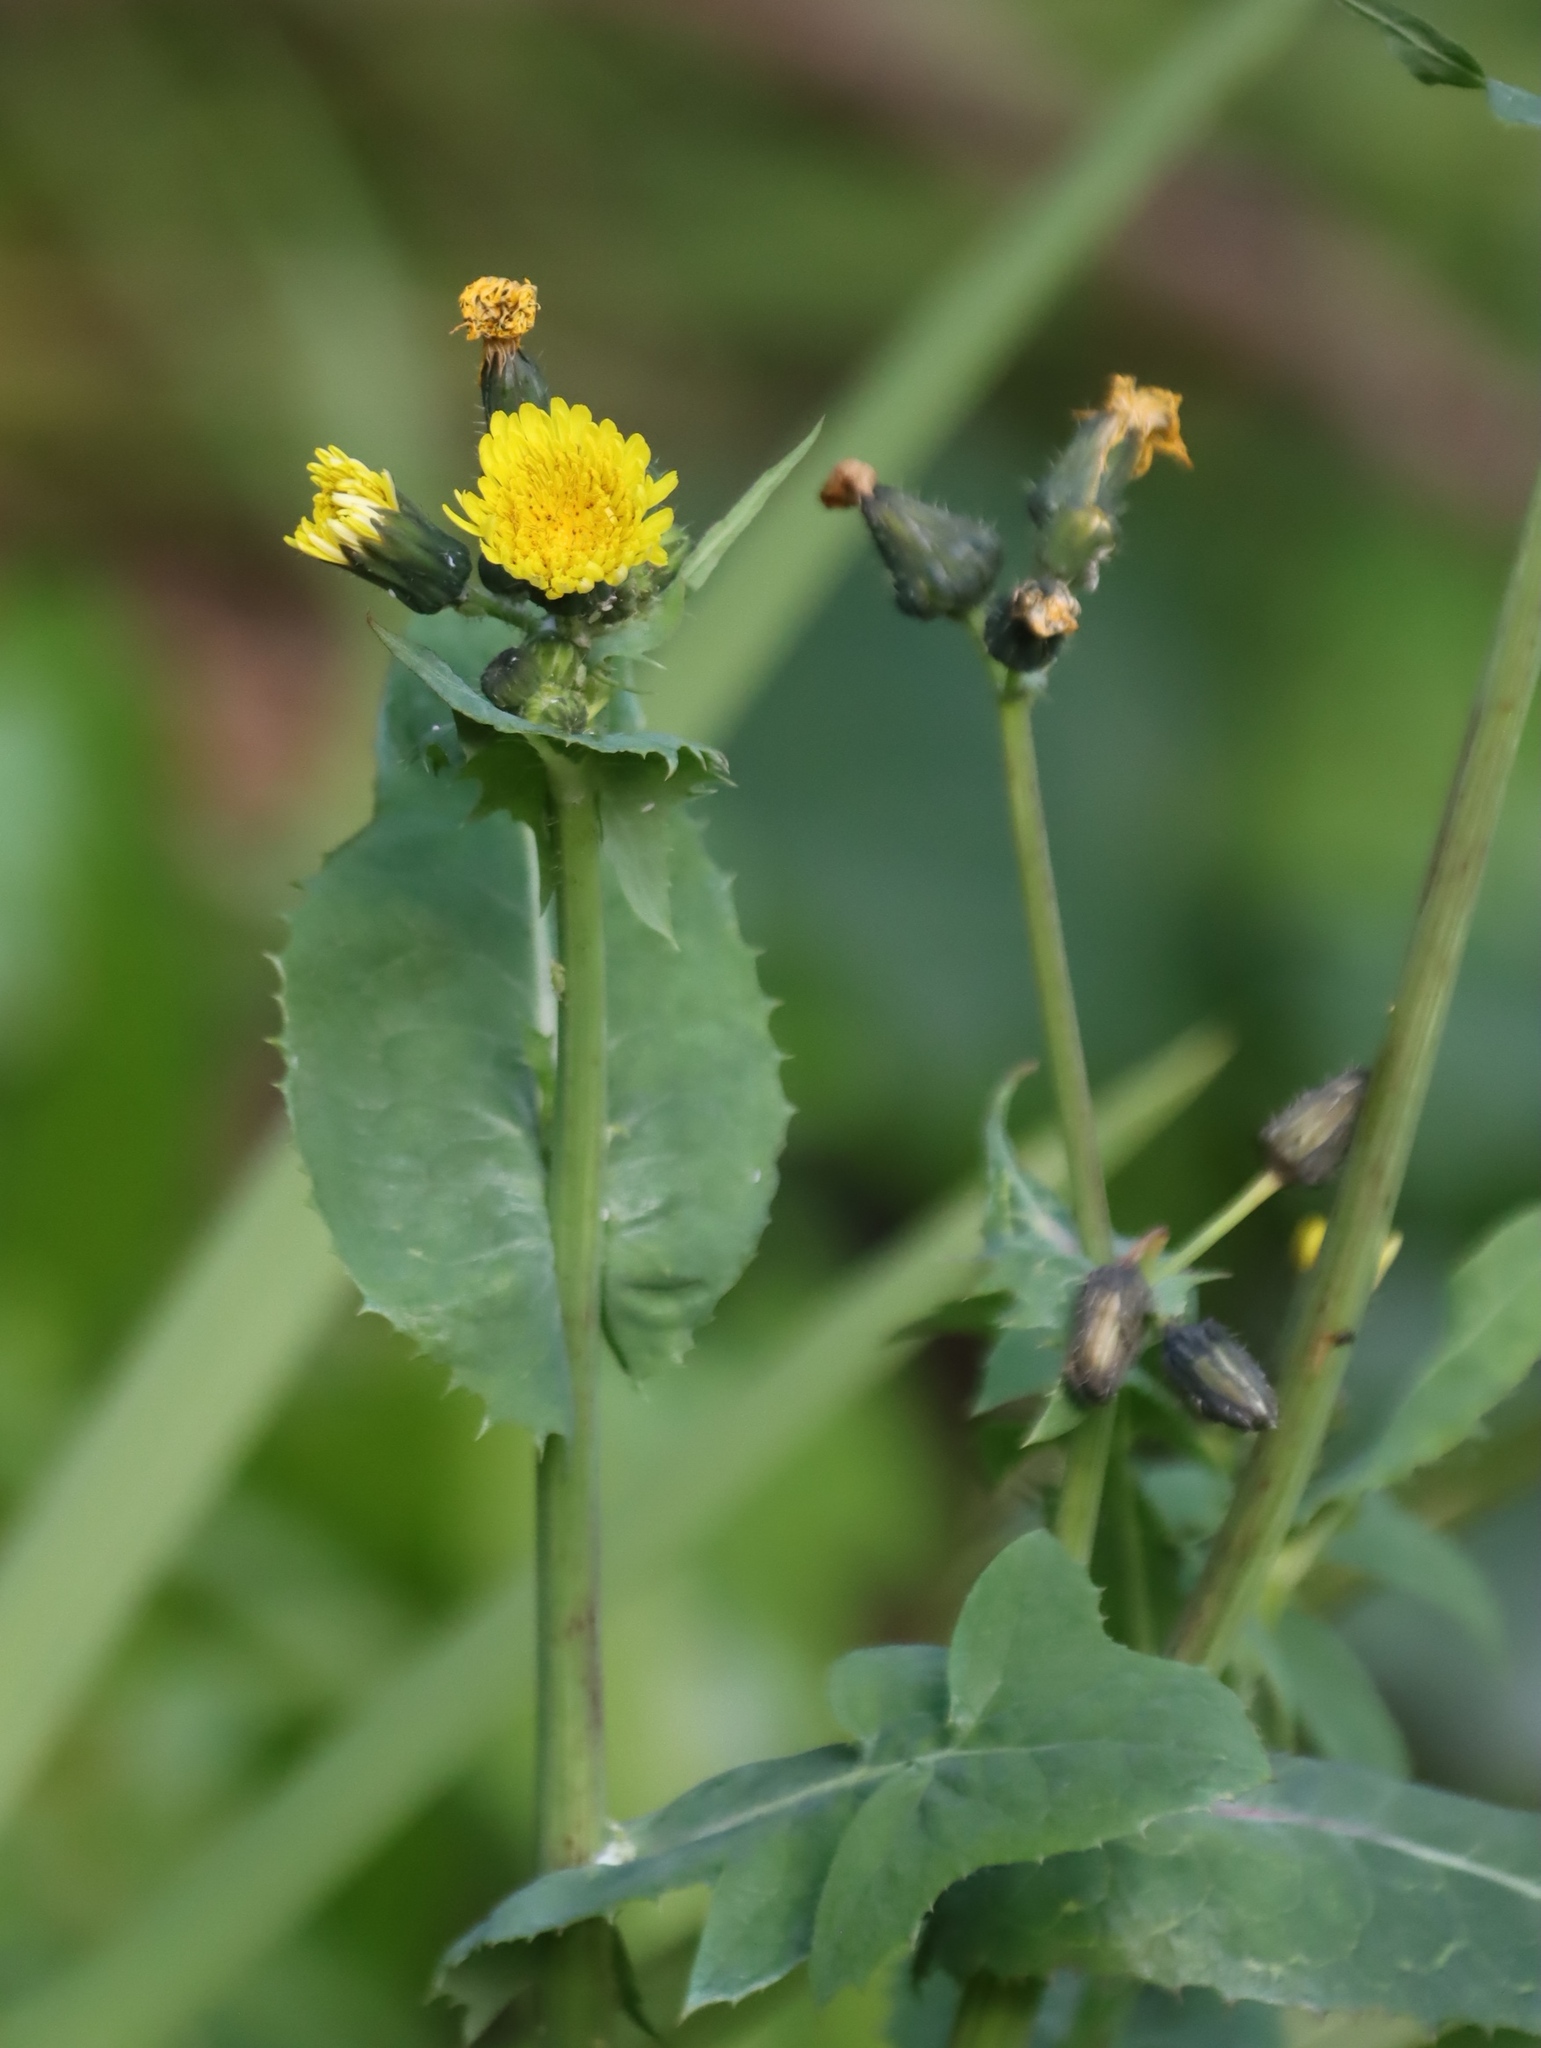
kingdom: Plantae
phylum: Tracheophyta
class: Magnoliopsida
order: Asterales
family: Asteraceae
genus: Sonchus
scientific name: Sonchus oleraceus
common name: Common sowthistle
